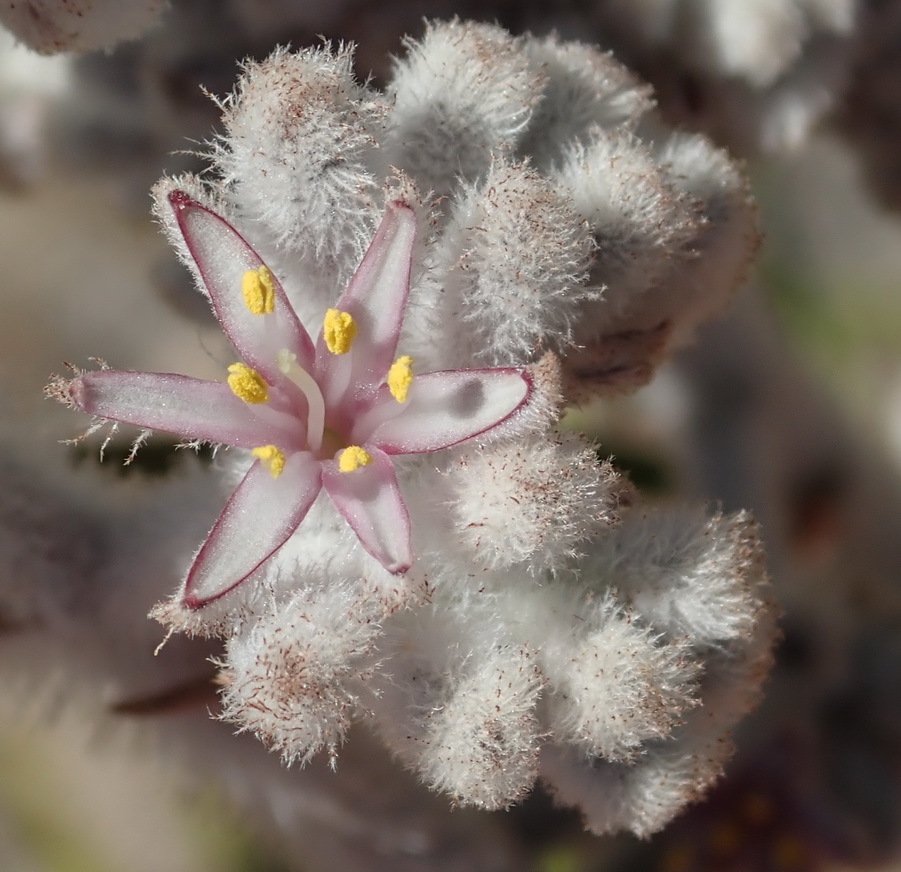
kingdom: Plantae
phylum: Tracheophyta
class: Liliopsida
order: Asparagales
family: Lanariaceae
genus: Lanaria
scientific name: Lanaria lanata
